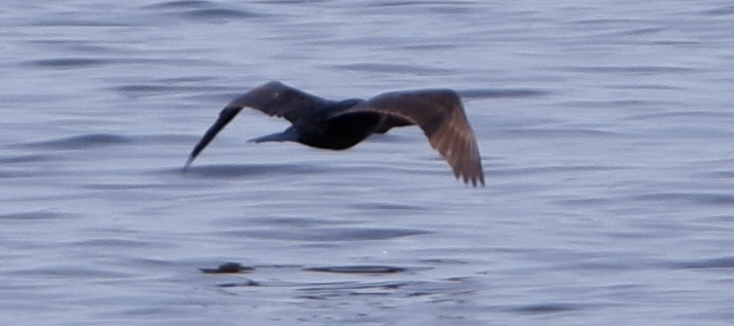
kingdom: Animalia
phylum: Chordata
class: Aves
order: Suliformes
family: Phalacrocoracidae
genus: Phalacrocorax
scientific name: Phalacrocorax auritus
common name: Double-crested cormorant
